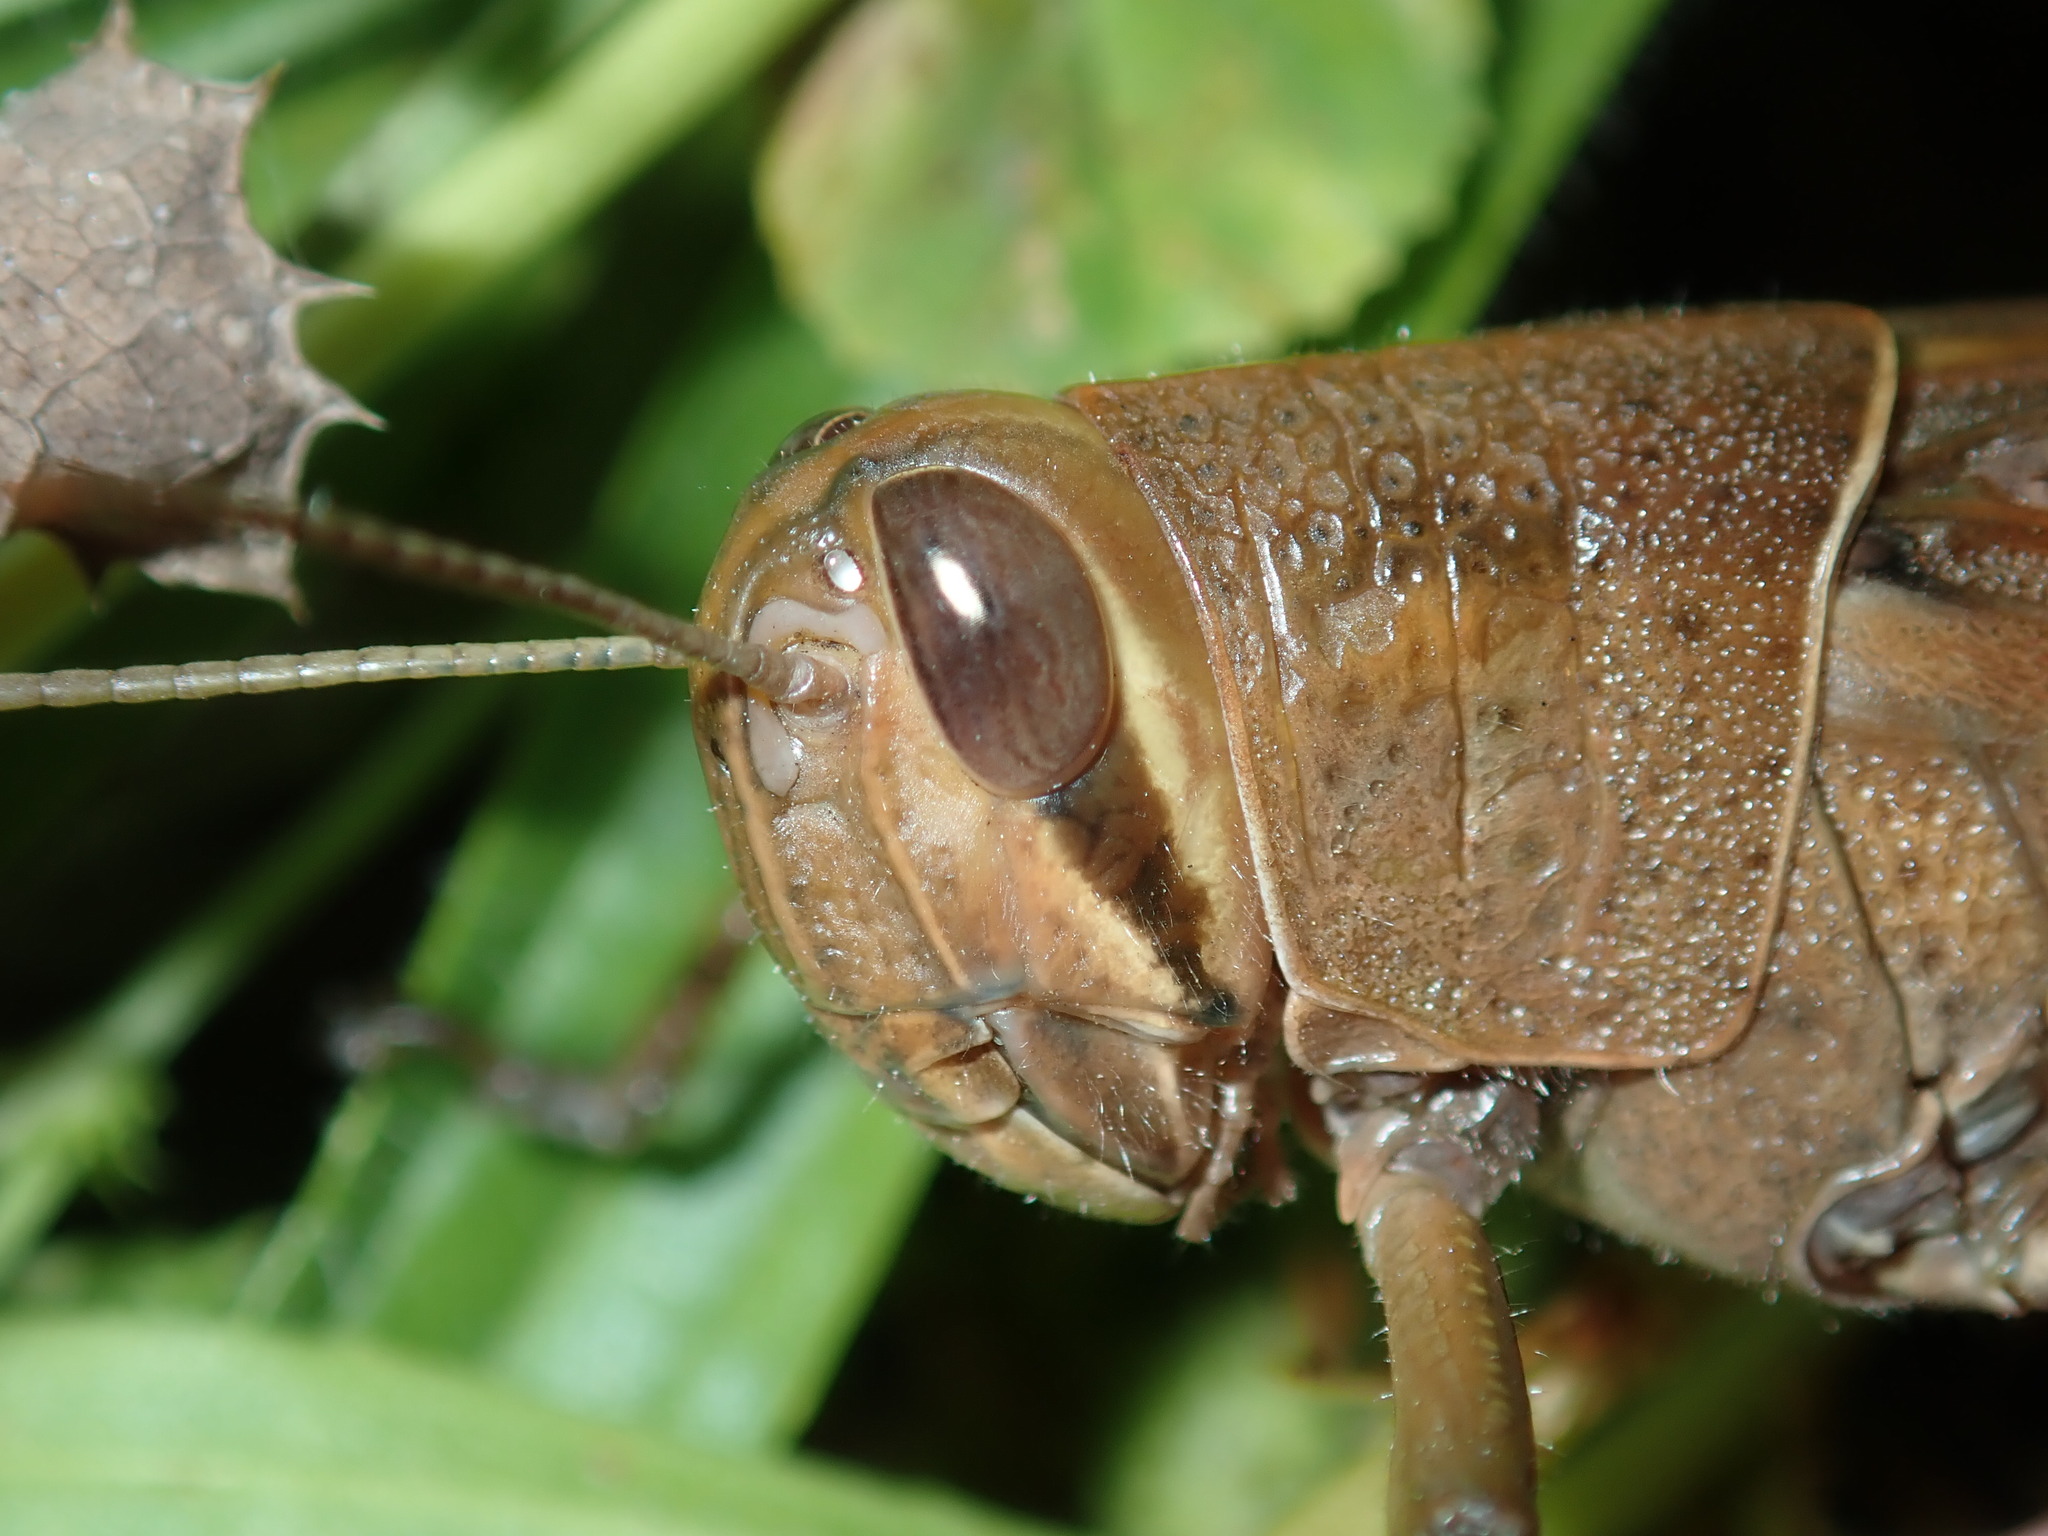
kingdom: Animalia
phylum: Arthropoda
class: Insecta
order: Orthoptera
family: Acrididae
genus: Austracris
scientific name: Austracris proxima
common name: Confusing spur-throated locust
